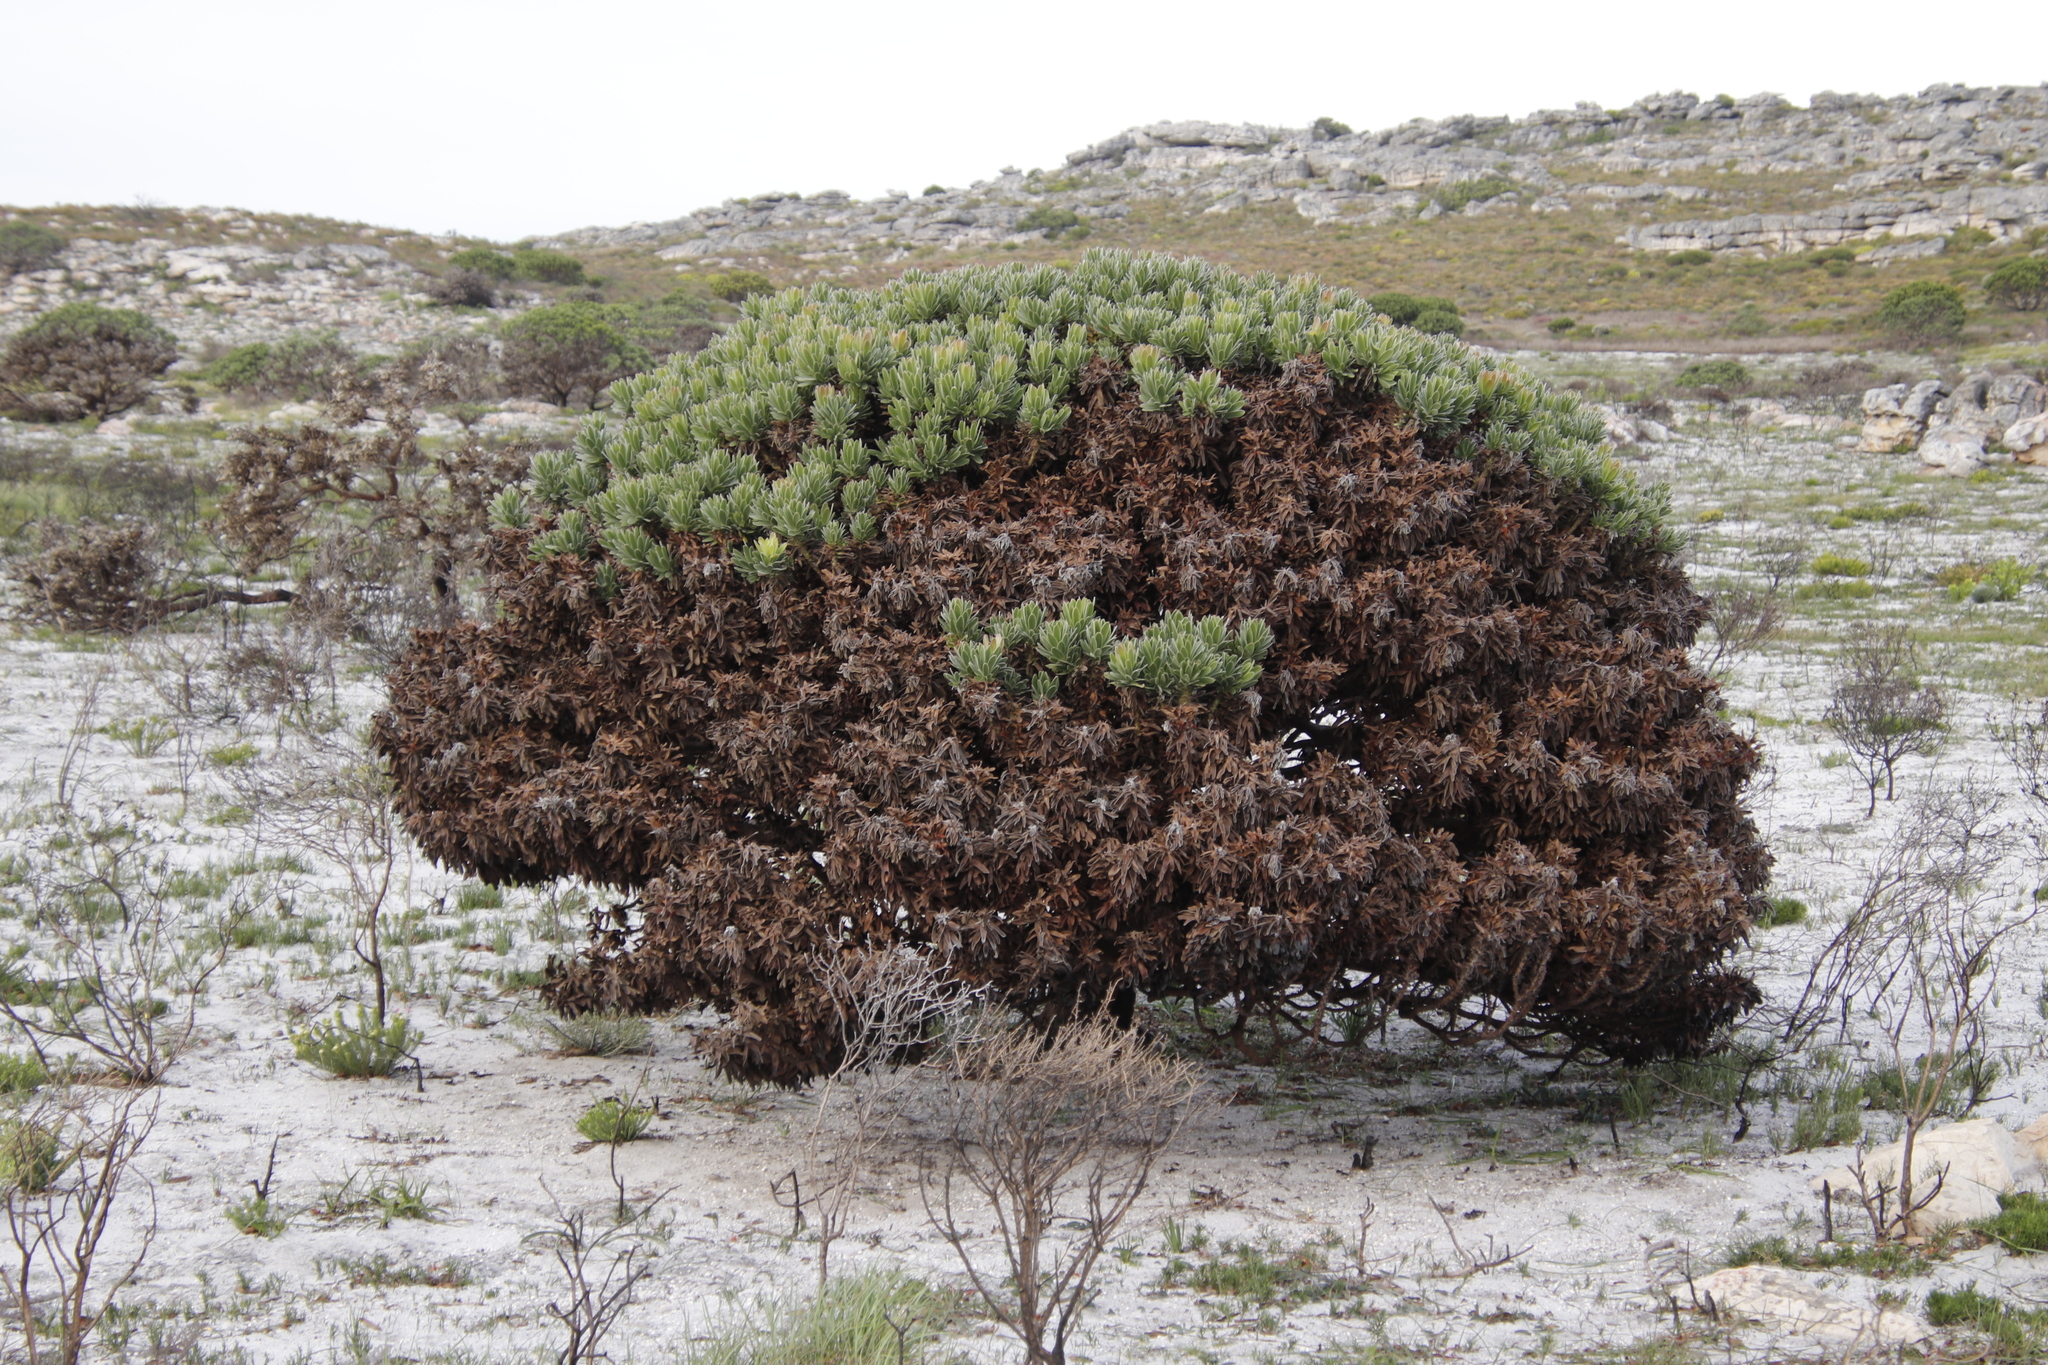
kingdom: Plantae
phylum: Tracheophyta
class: Magnoliopsida
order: Proteales
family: Proteaceae
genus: Mimetes
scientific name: Mimetes fimbriifolius
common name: Fringed bottlebrush
